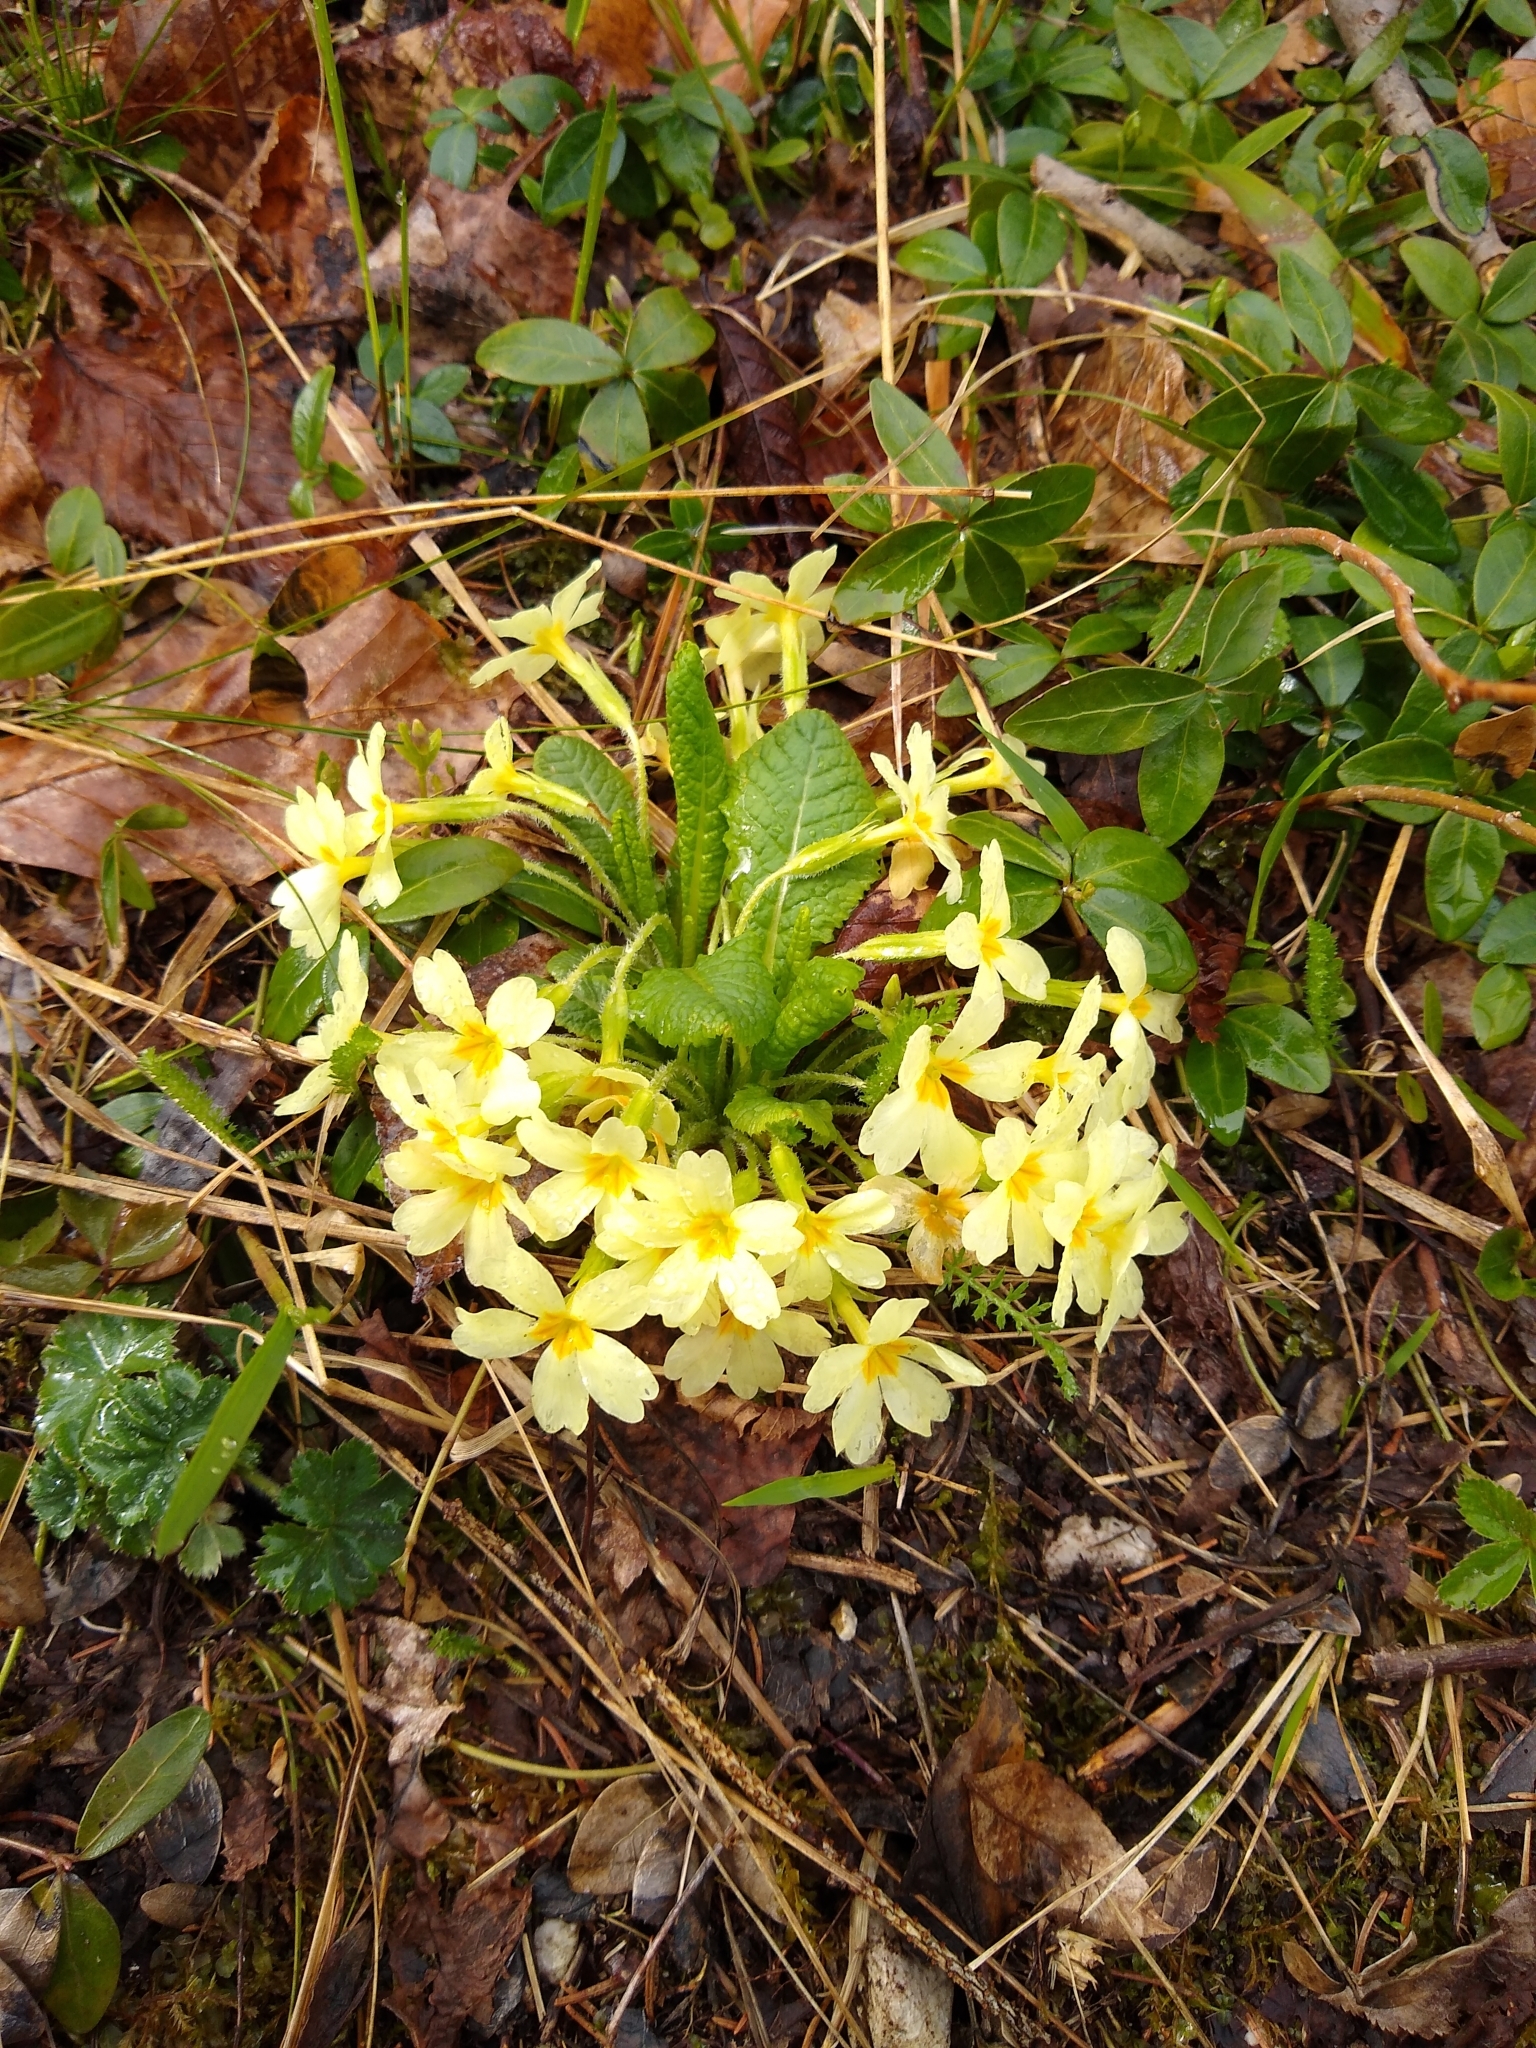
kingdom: Plantae
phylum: Tracheophyta
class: Magnoliopsida
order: Ericales
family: Primulaceae
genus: Primula
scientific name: Primula vulgaris
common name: Primrose
